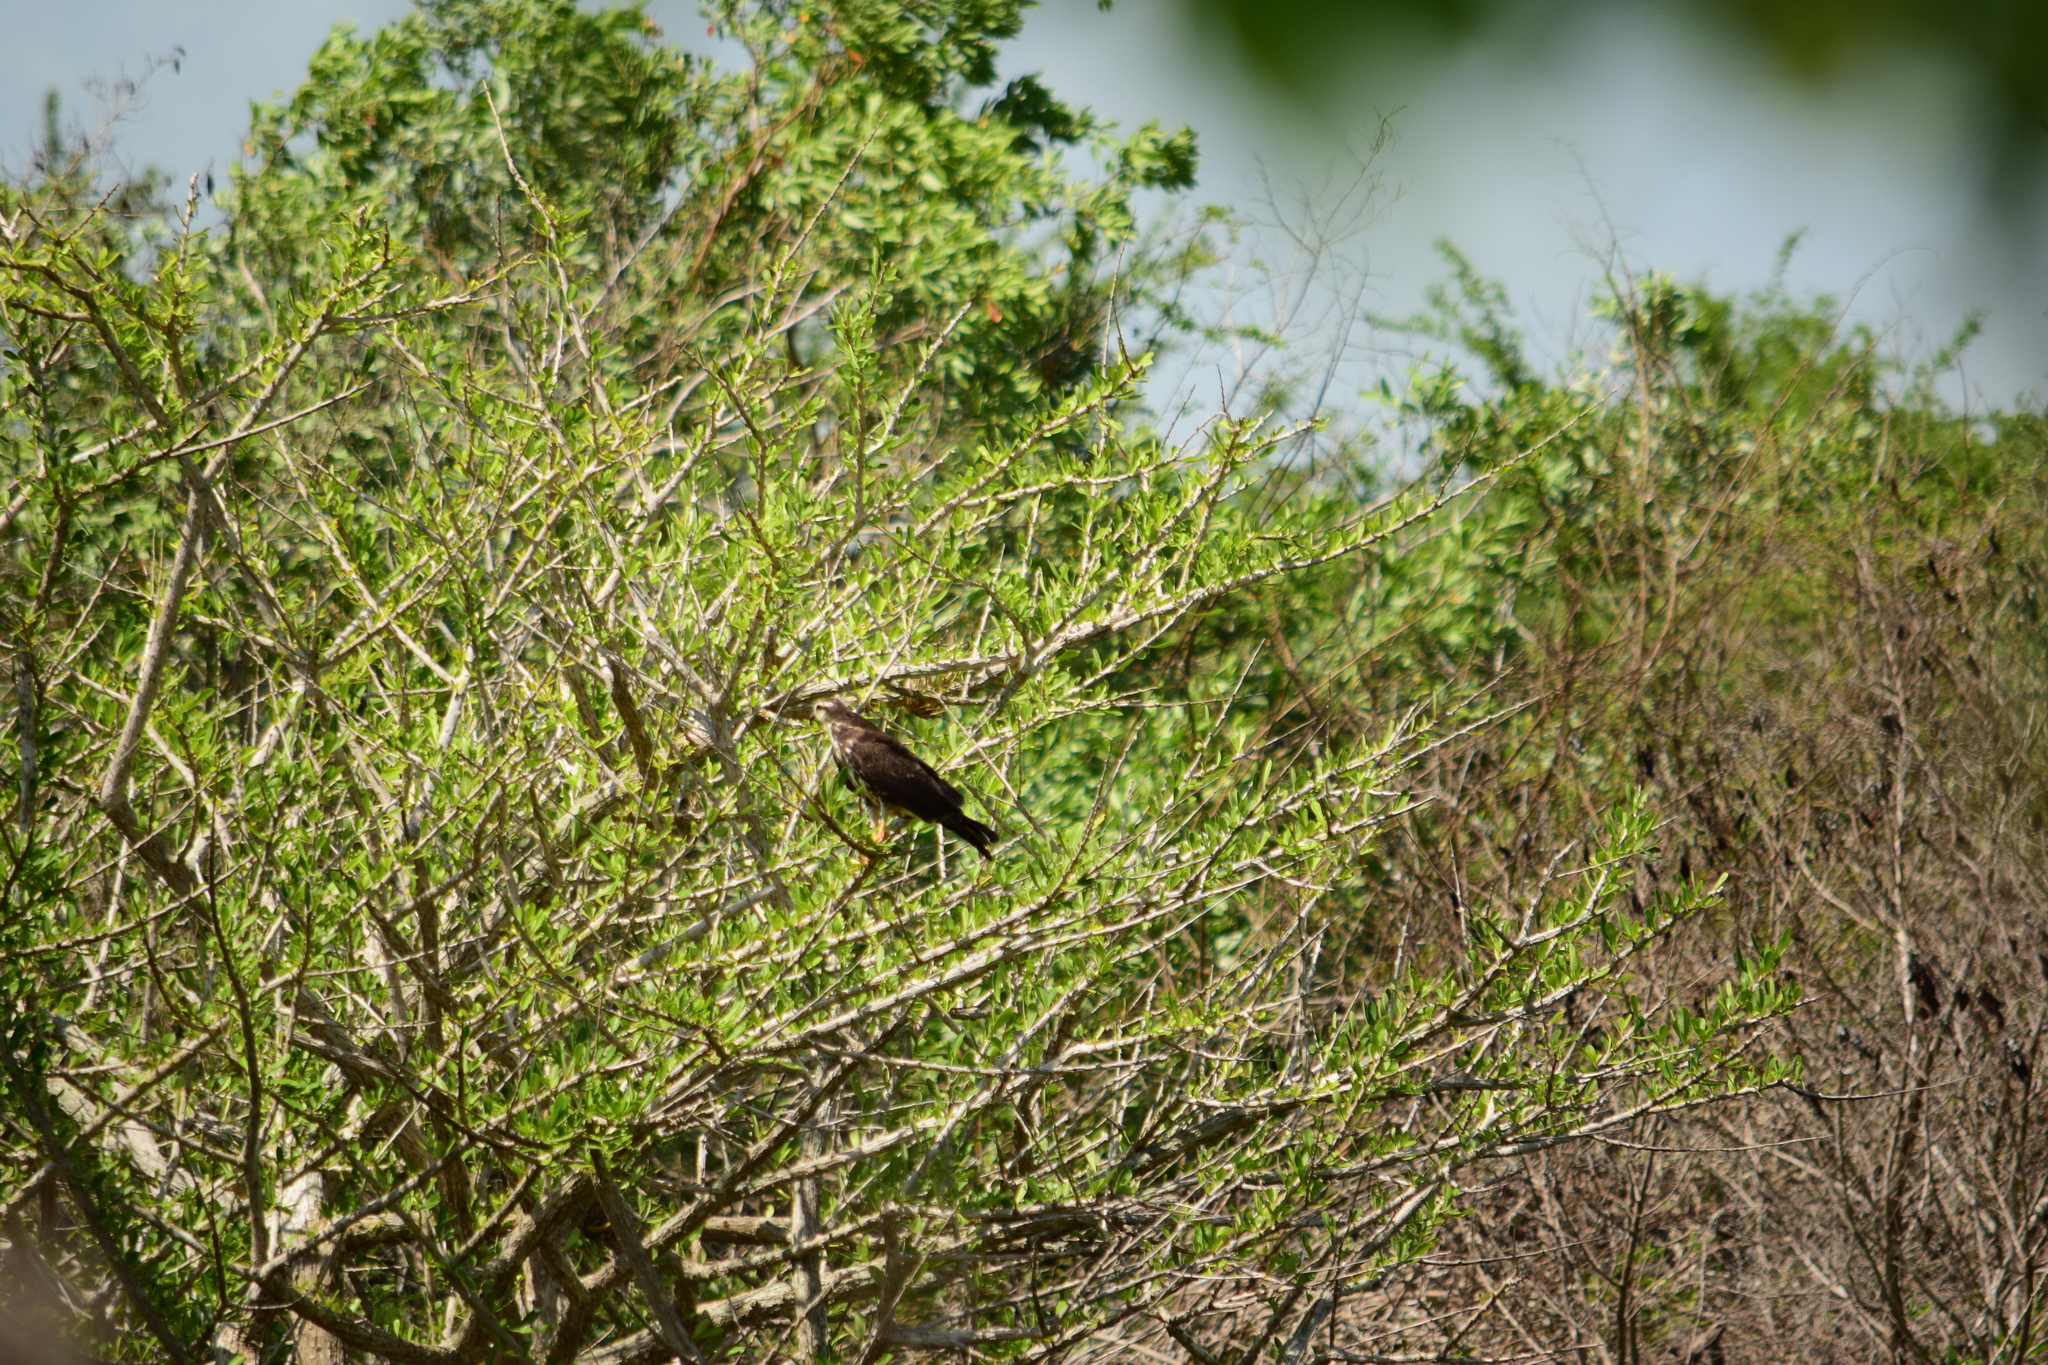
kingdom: Animalia
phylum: Chordata
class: Aves
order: Accipitriformes
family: Accipitridae
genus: Rostrhamus
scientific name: Rostrhamus sociabilis
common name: Snail kite
